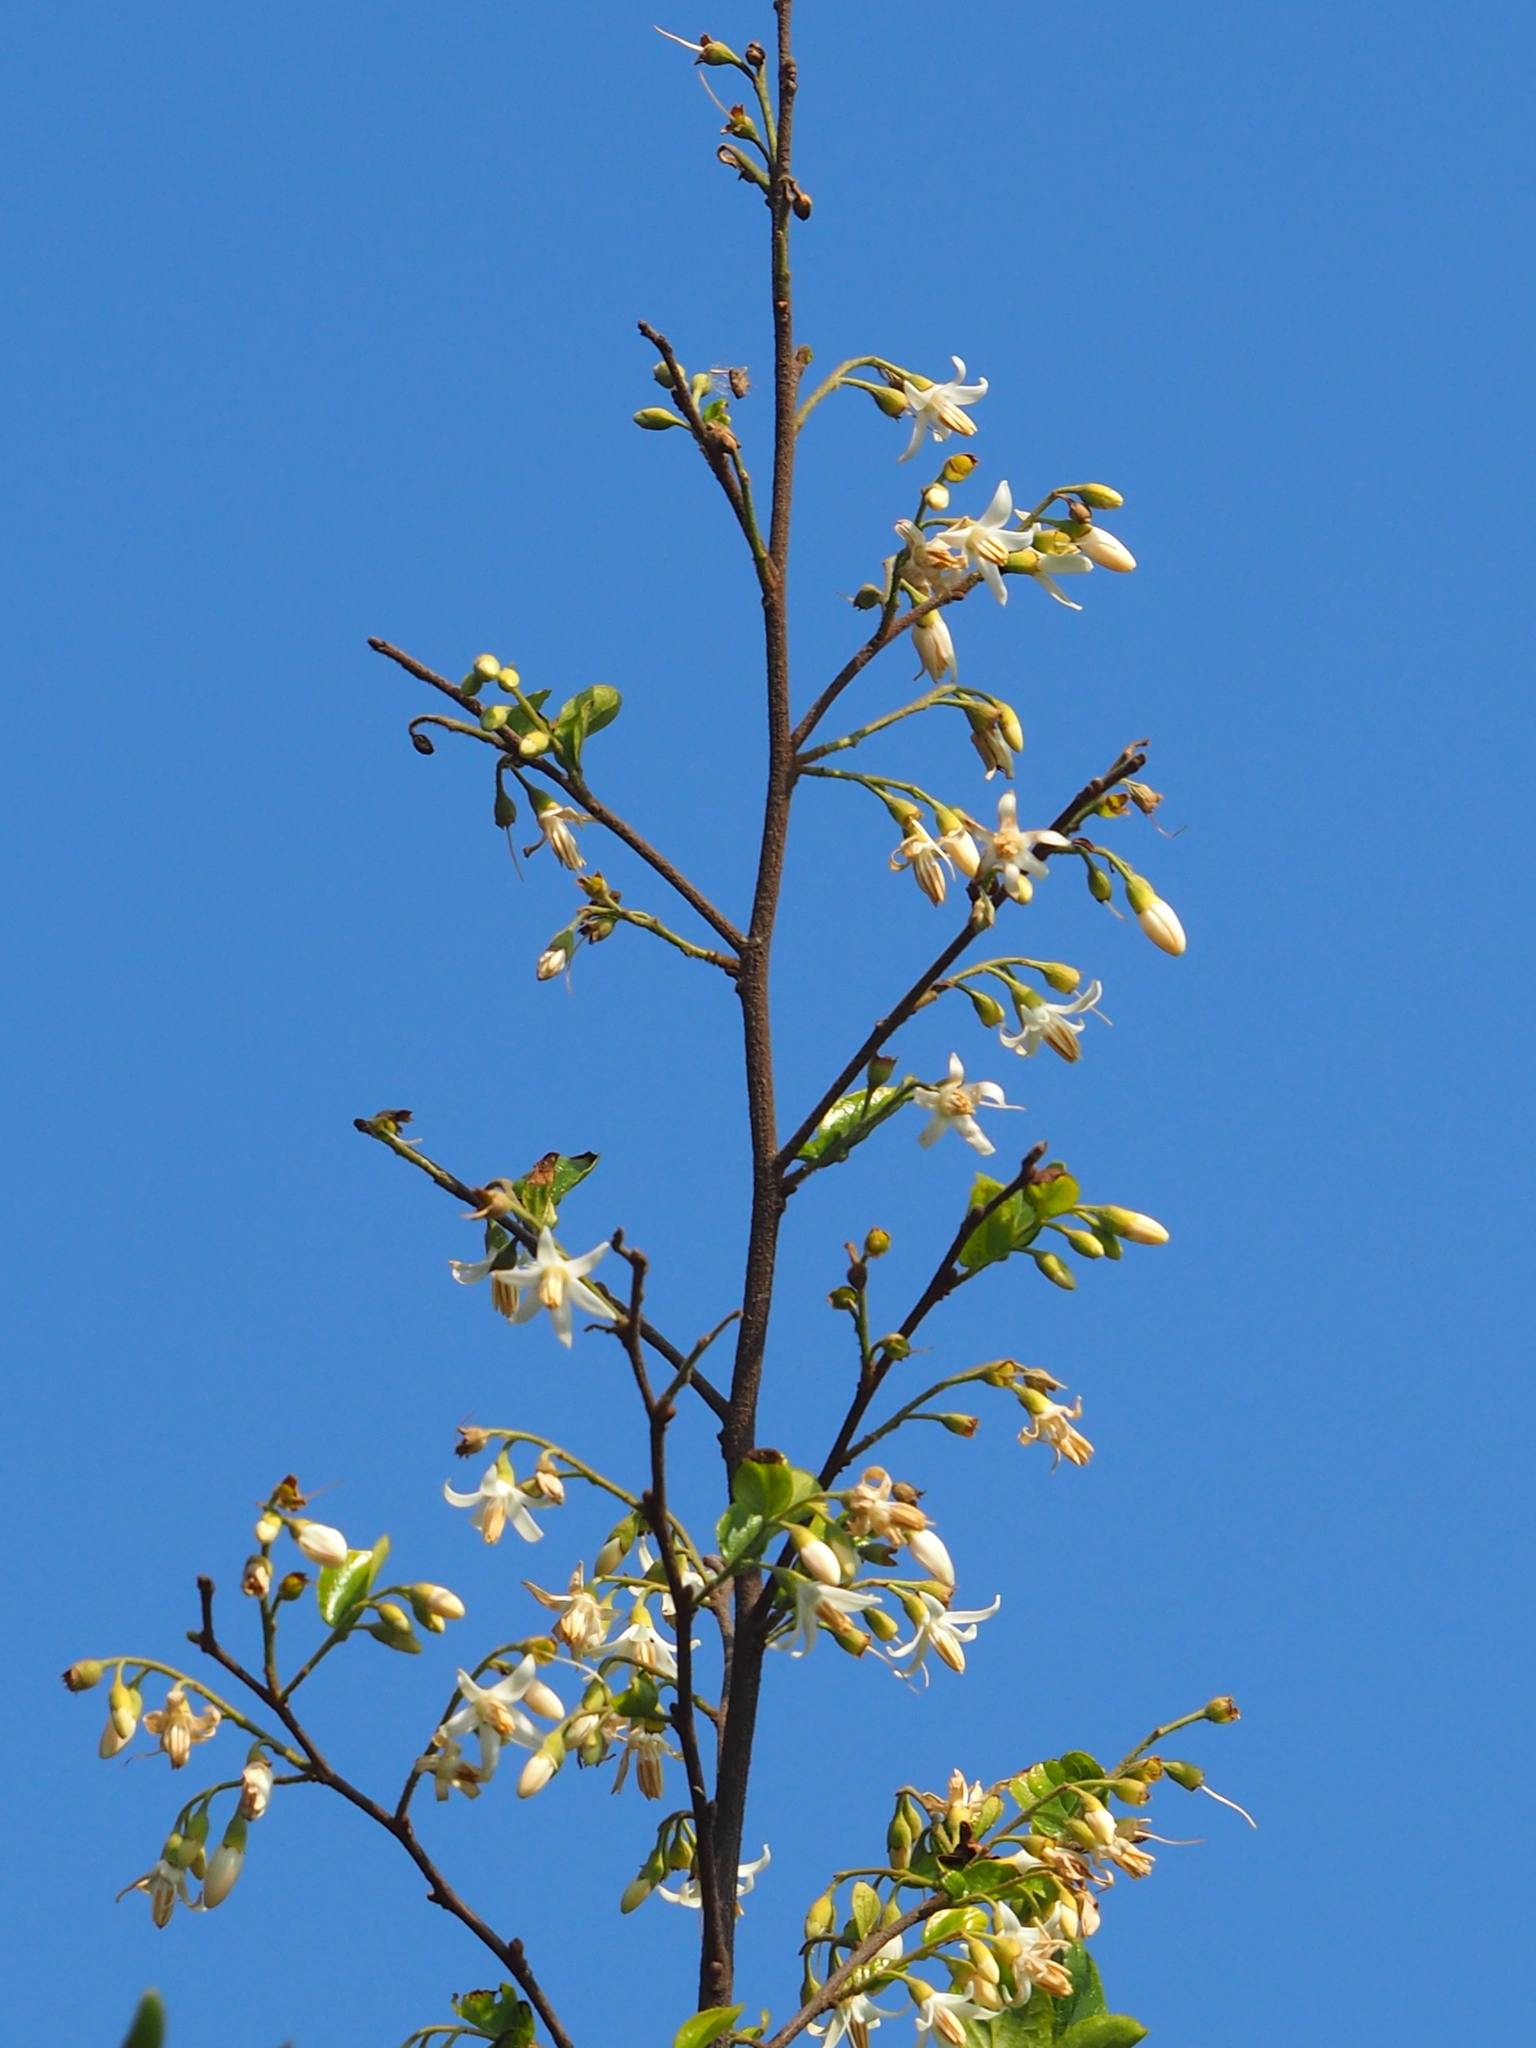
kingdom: Plantae
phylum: Tracheophyta
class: Magnoliopsida
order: Ericales
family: Styracaceae
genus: Styrax
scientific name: Styrax faberi
